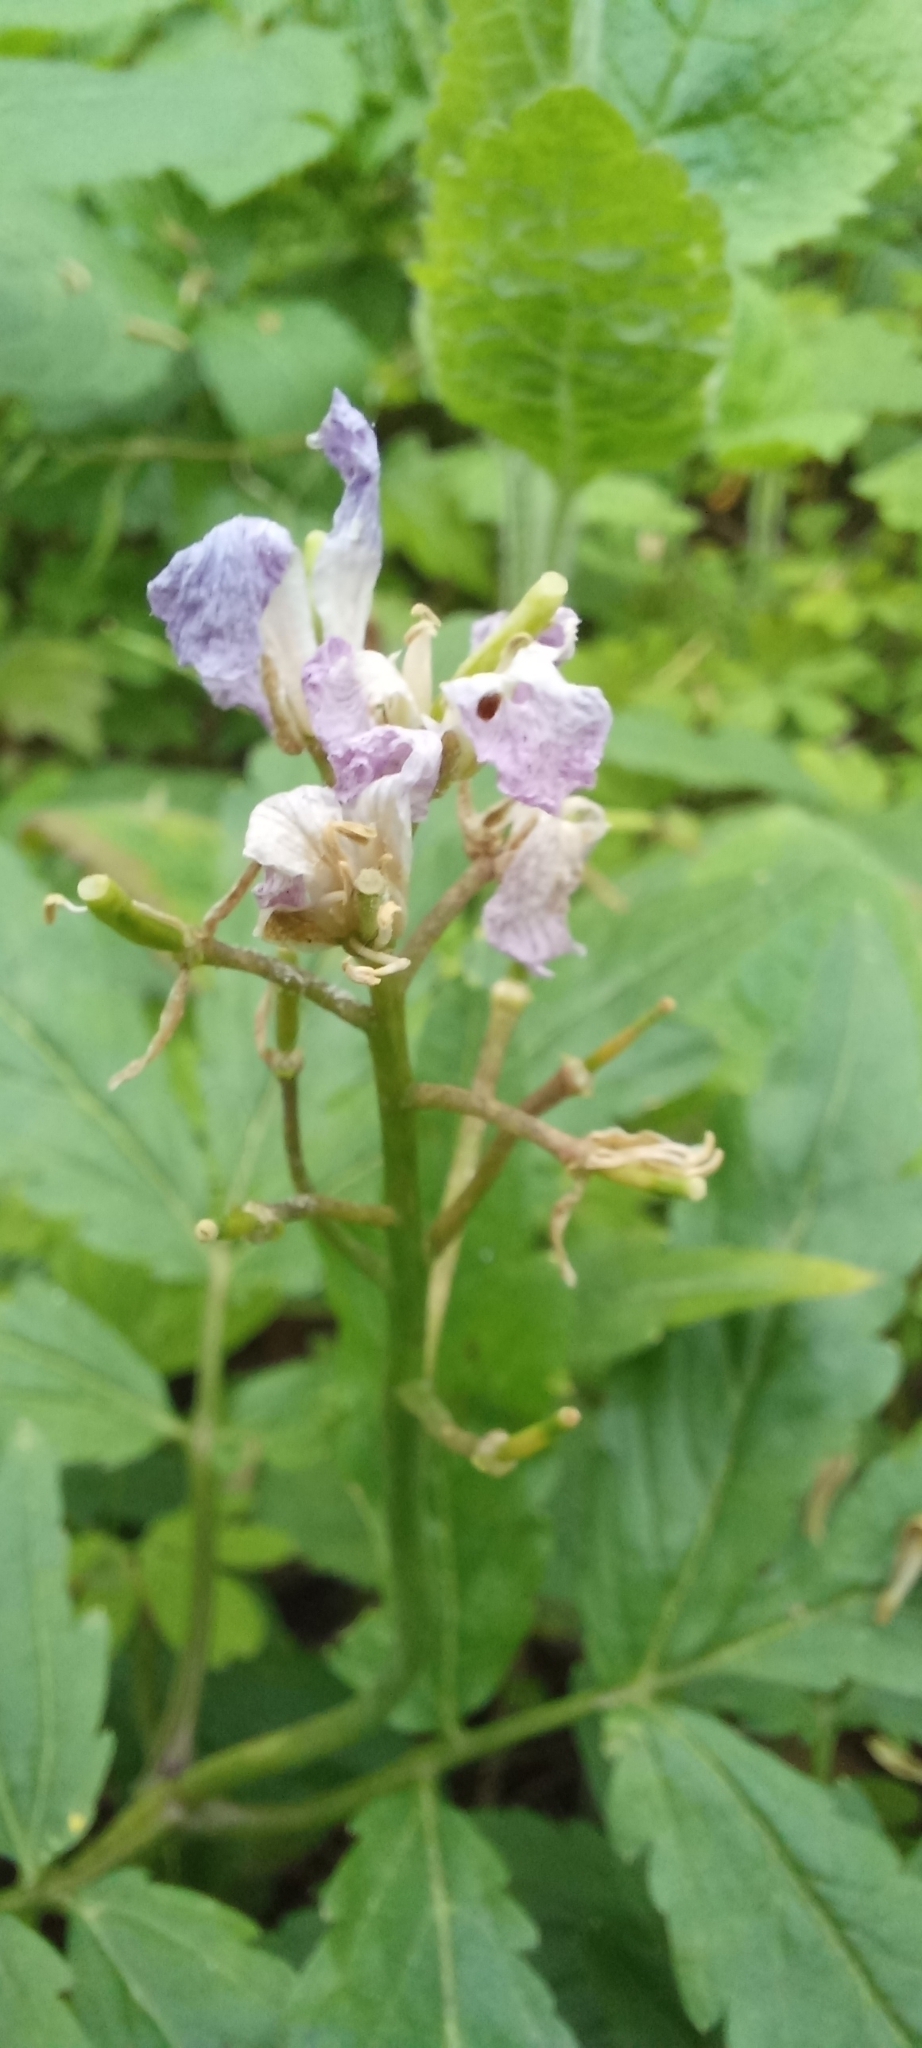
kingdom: Plantae
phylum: Tracheophyta
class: Magnoliopsida
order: Brassicales
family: Brassicaceae
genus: Cardamine
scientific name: Cardamine quinquefolia
